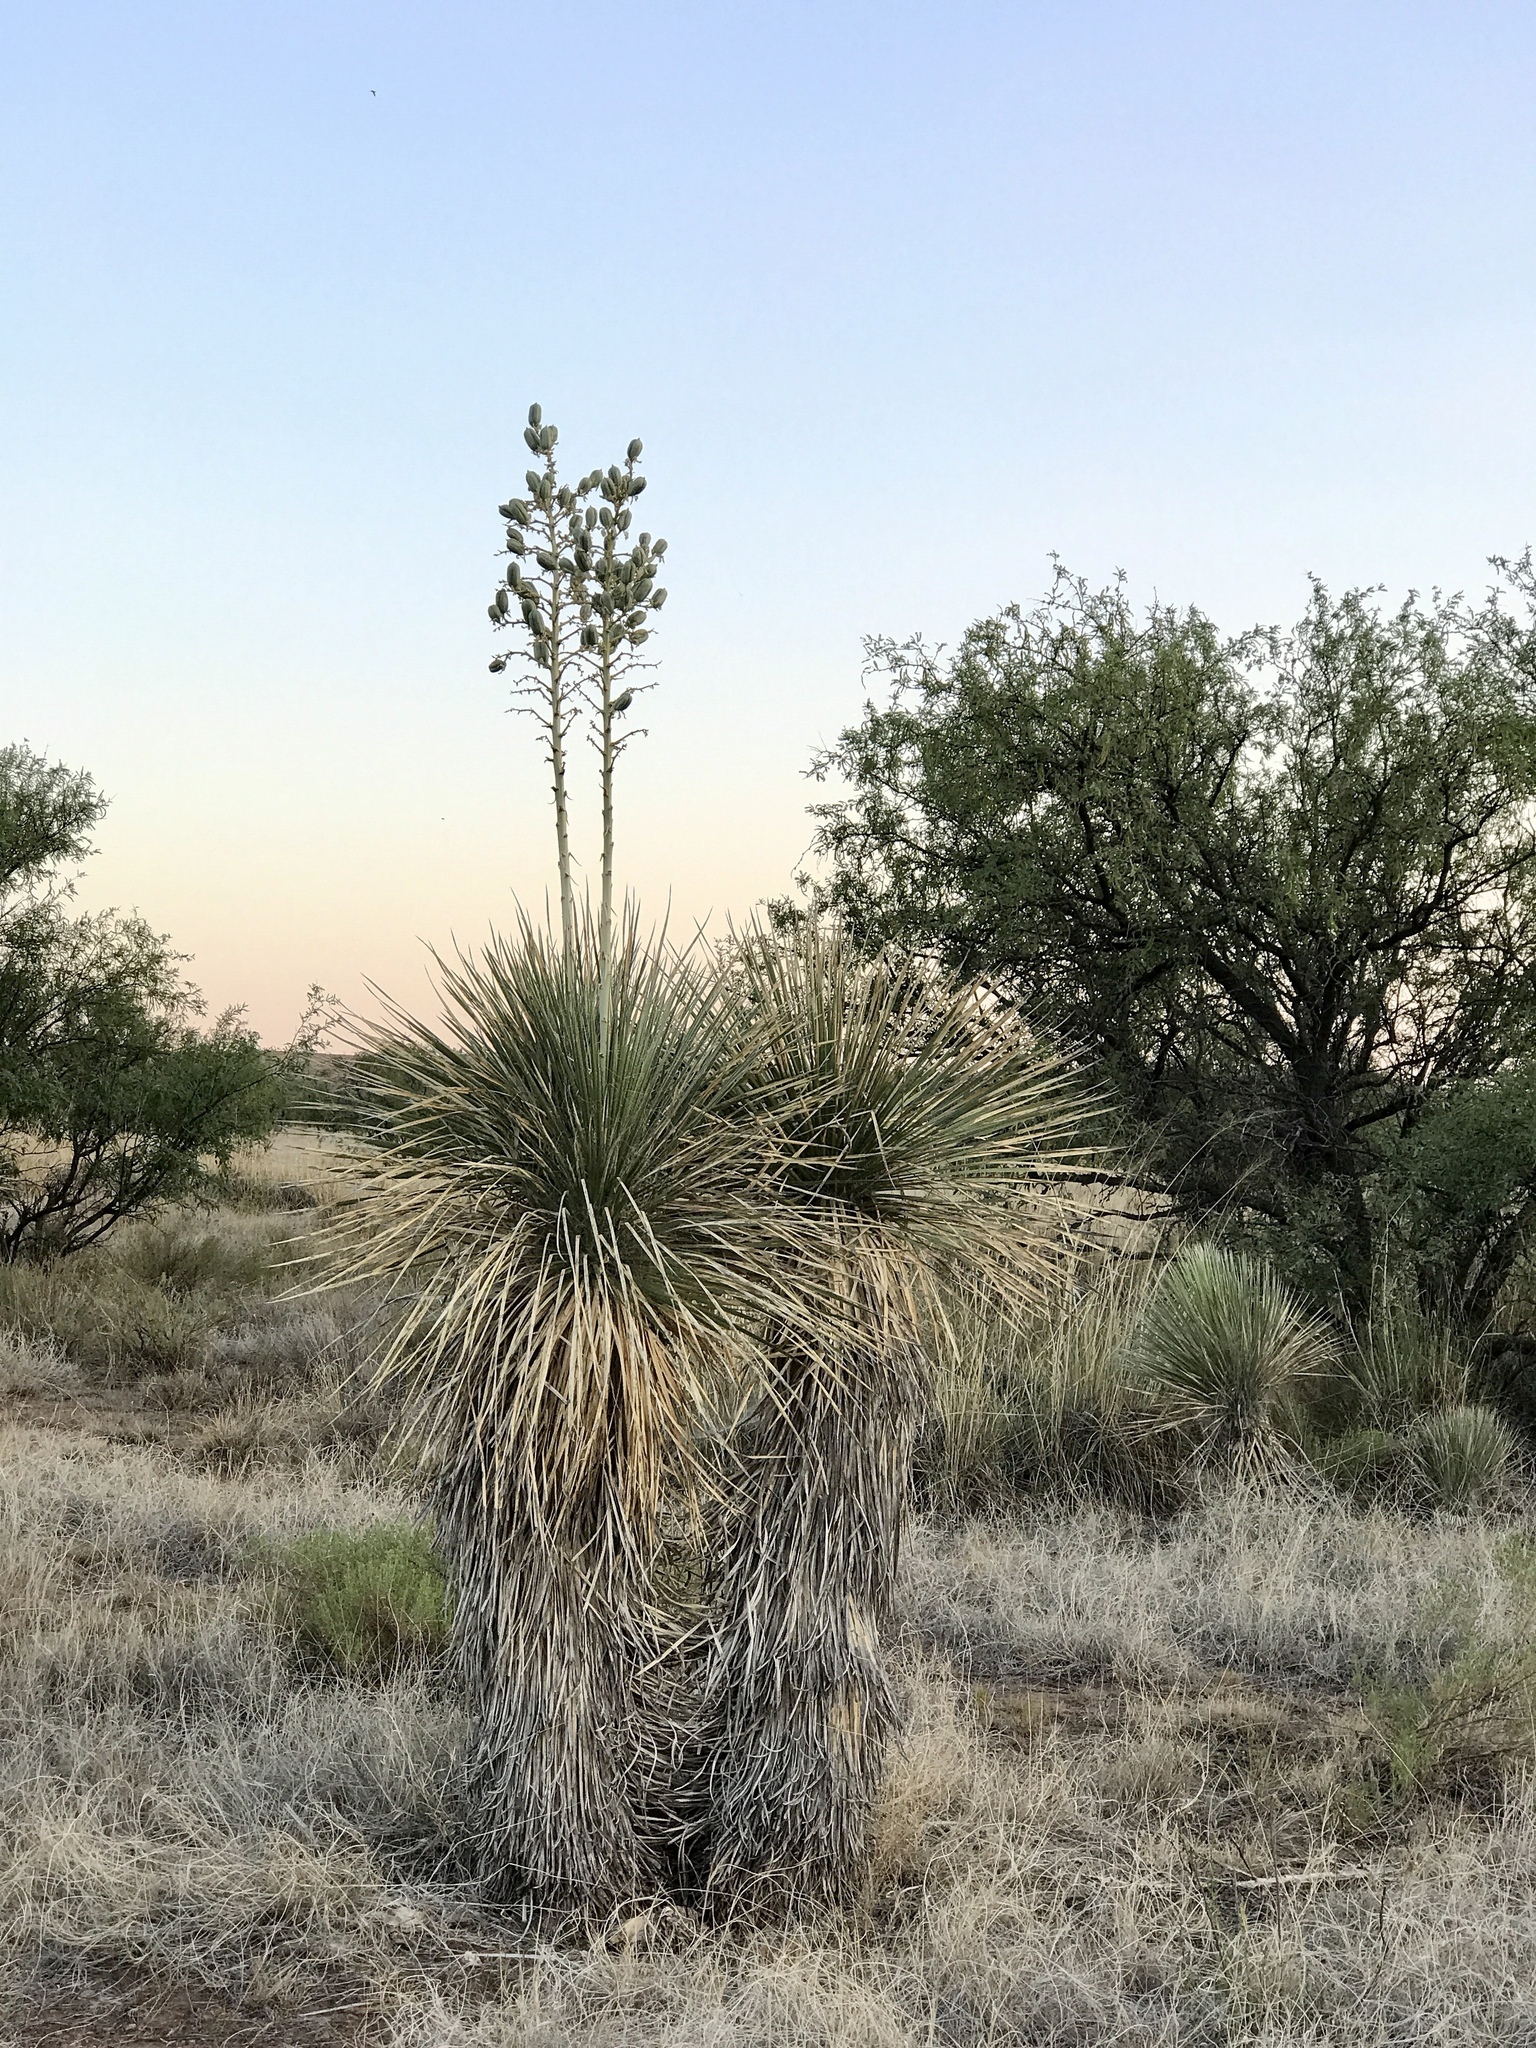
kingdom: Plantae
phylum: Tracheophyta
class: Liliopsida
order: Asparagales
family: Asparagaceae
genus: Yucca
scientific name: Yucca elata
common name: Palmella
